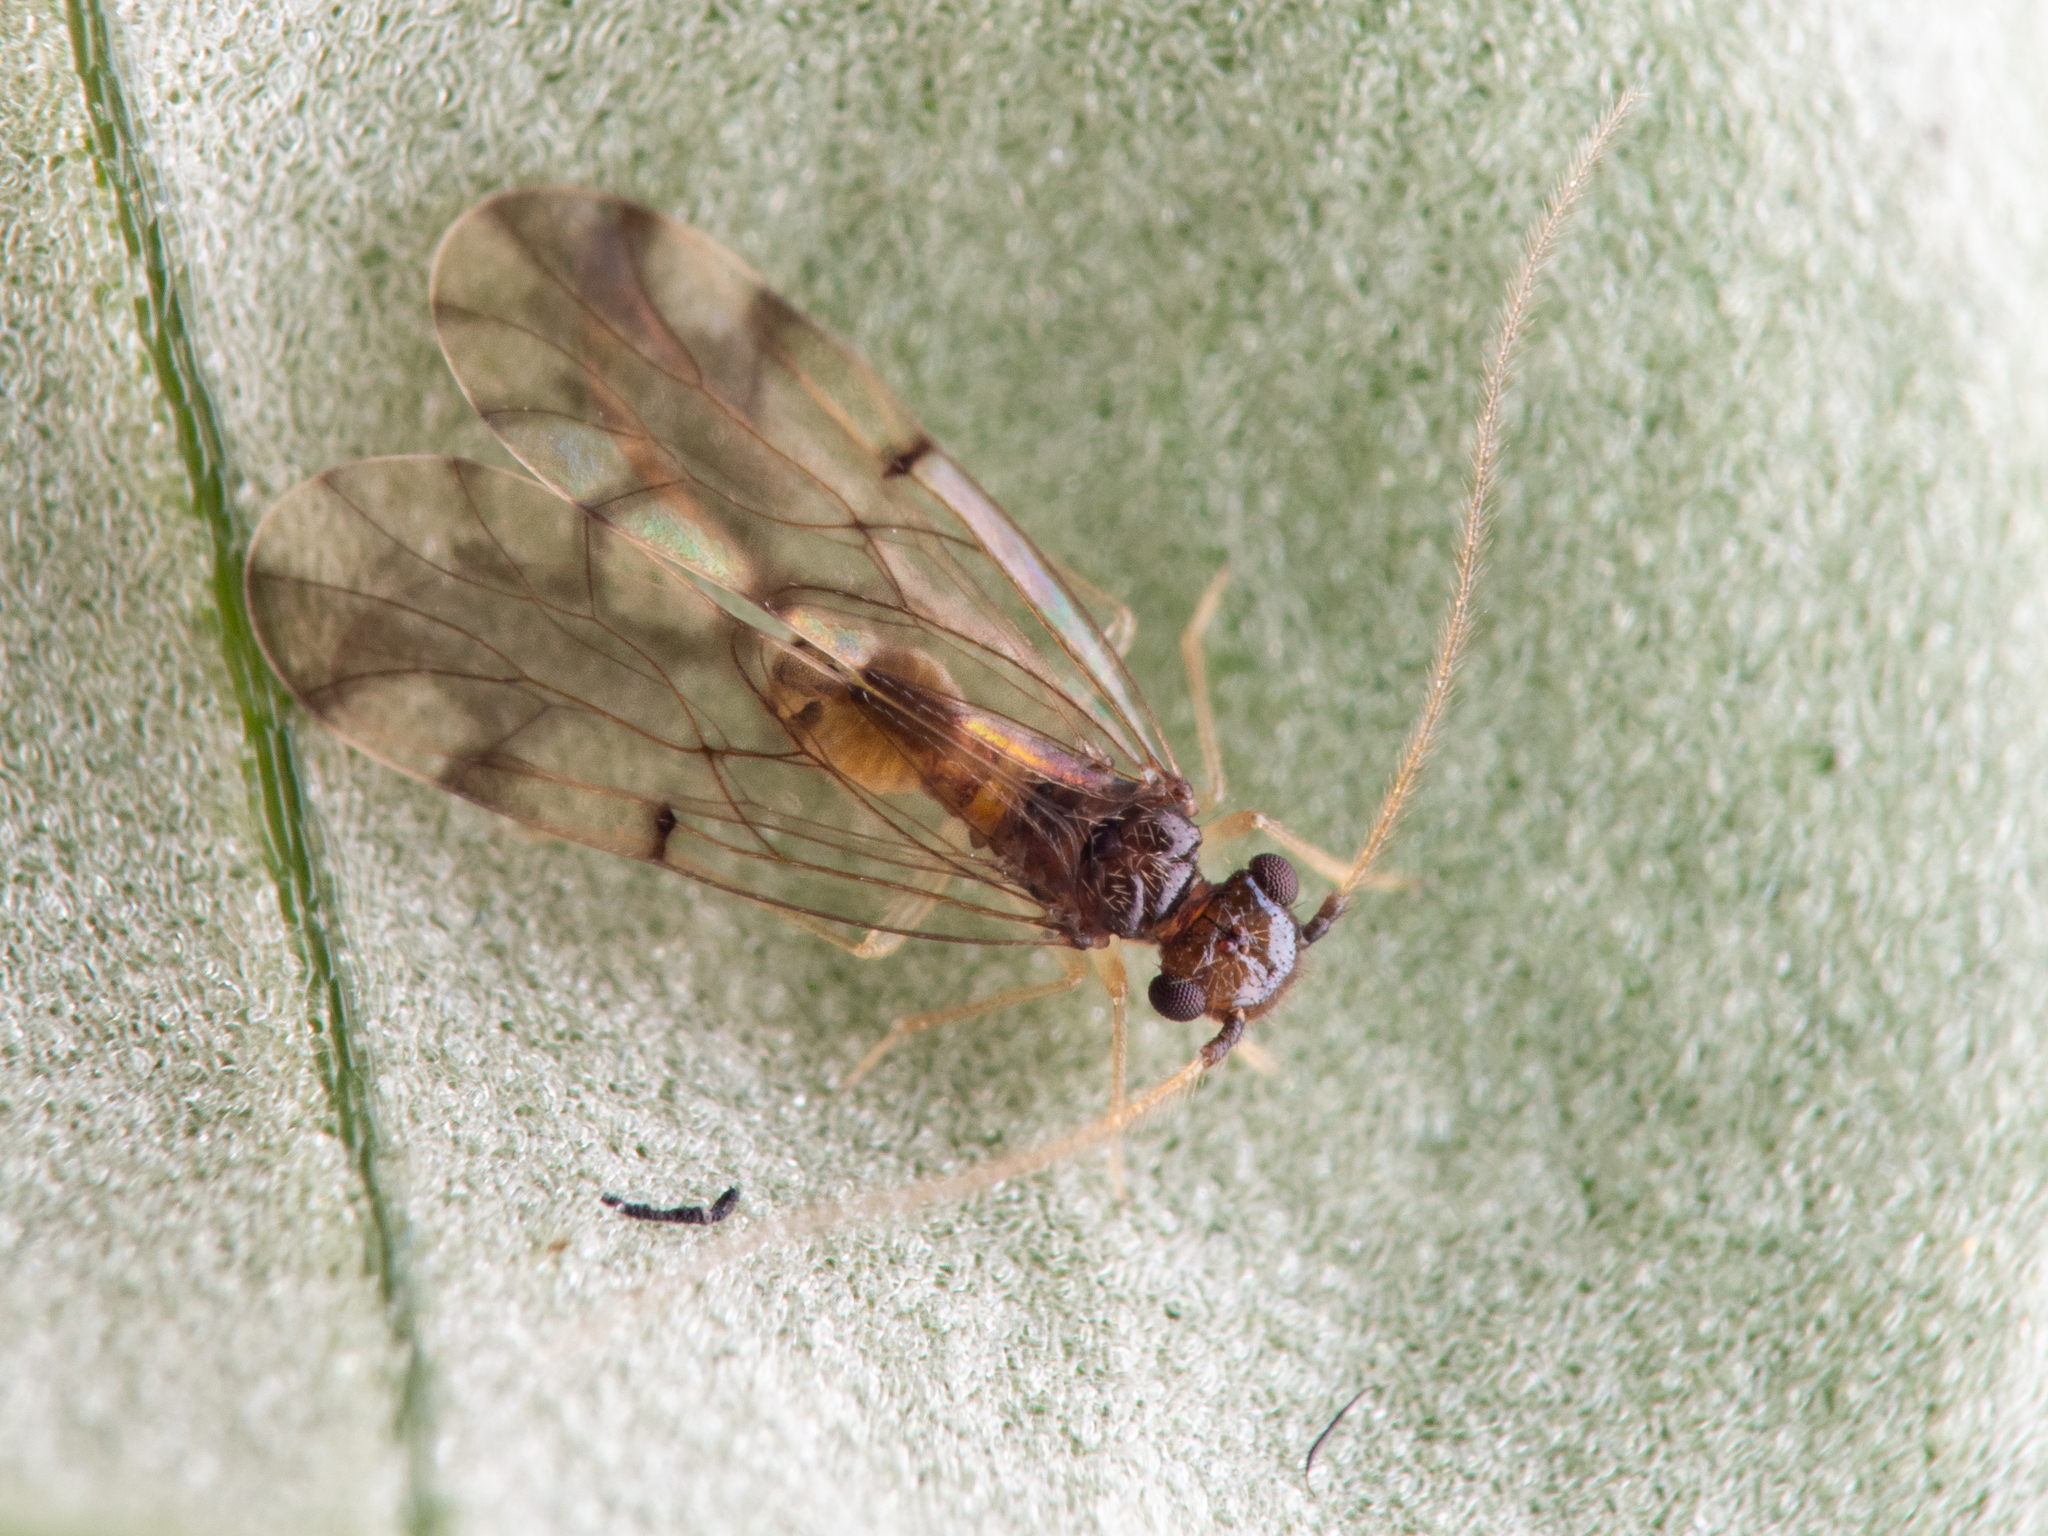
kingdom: Animalia
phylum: Arthropoda
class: Insecta
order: Psocodea
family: Ectopsocidae
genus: Ectopsocus
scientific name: Ectopsocus gracilis
